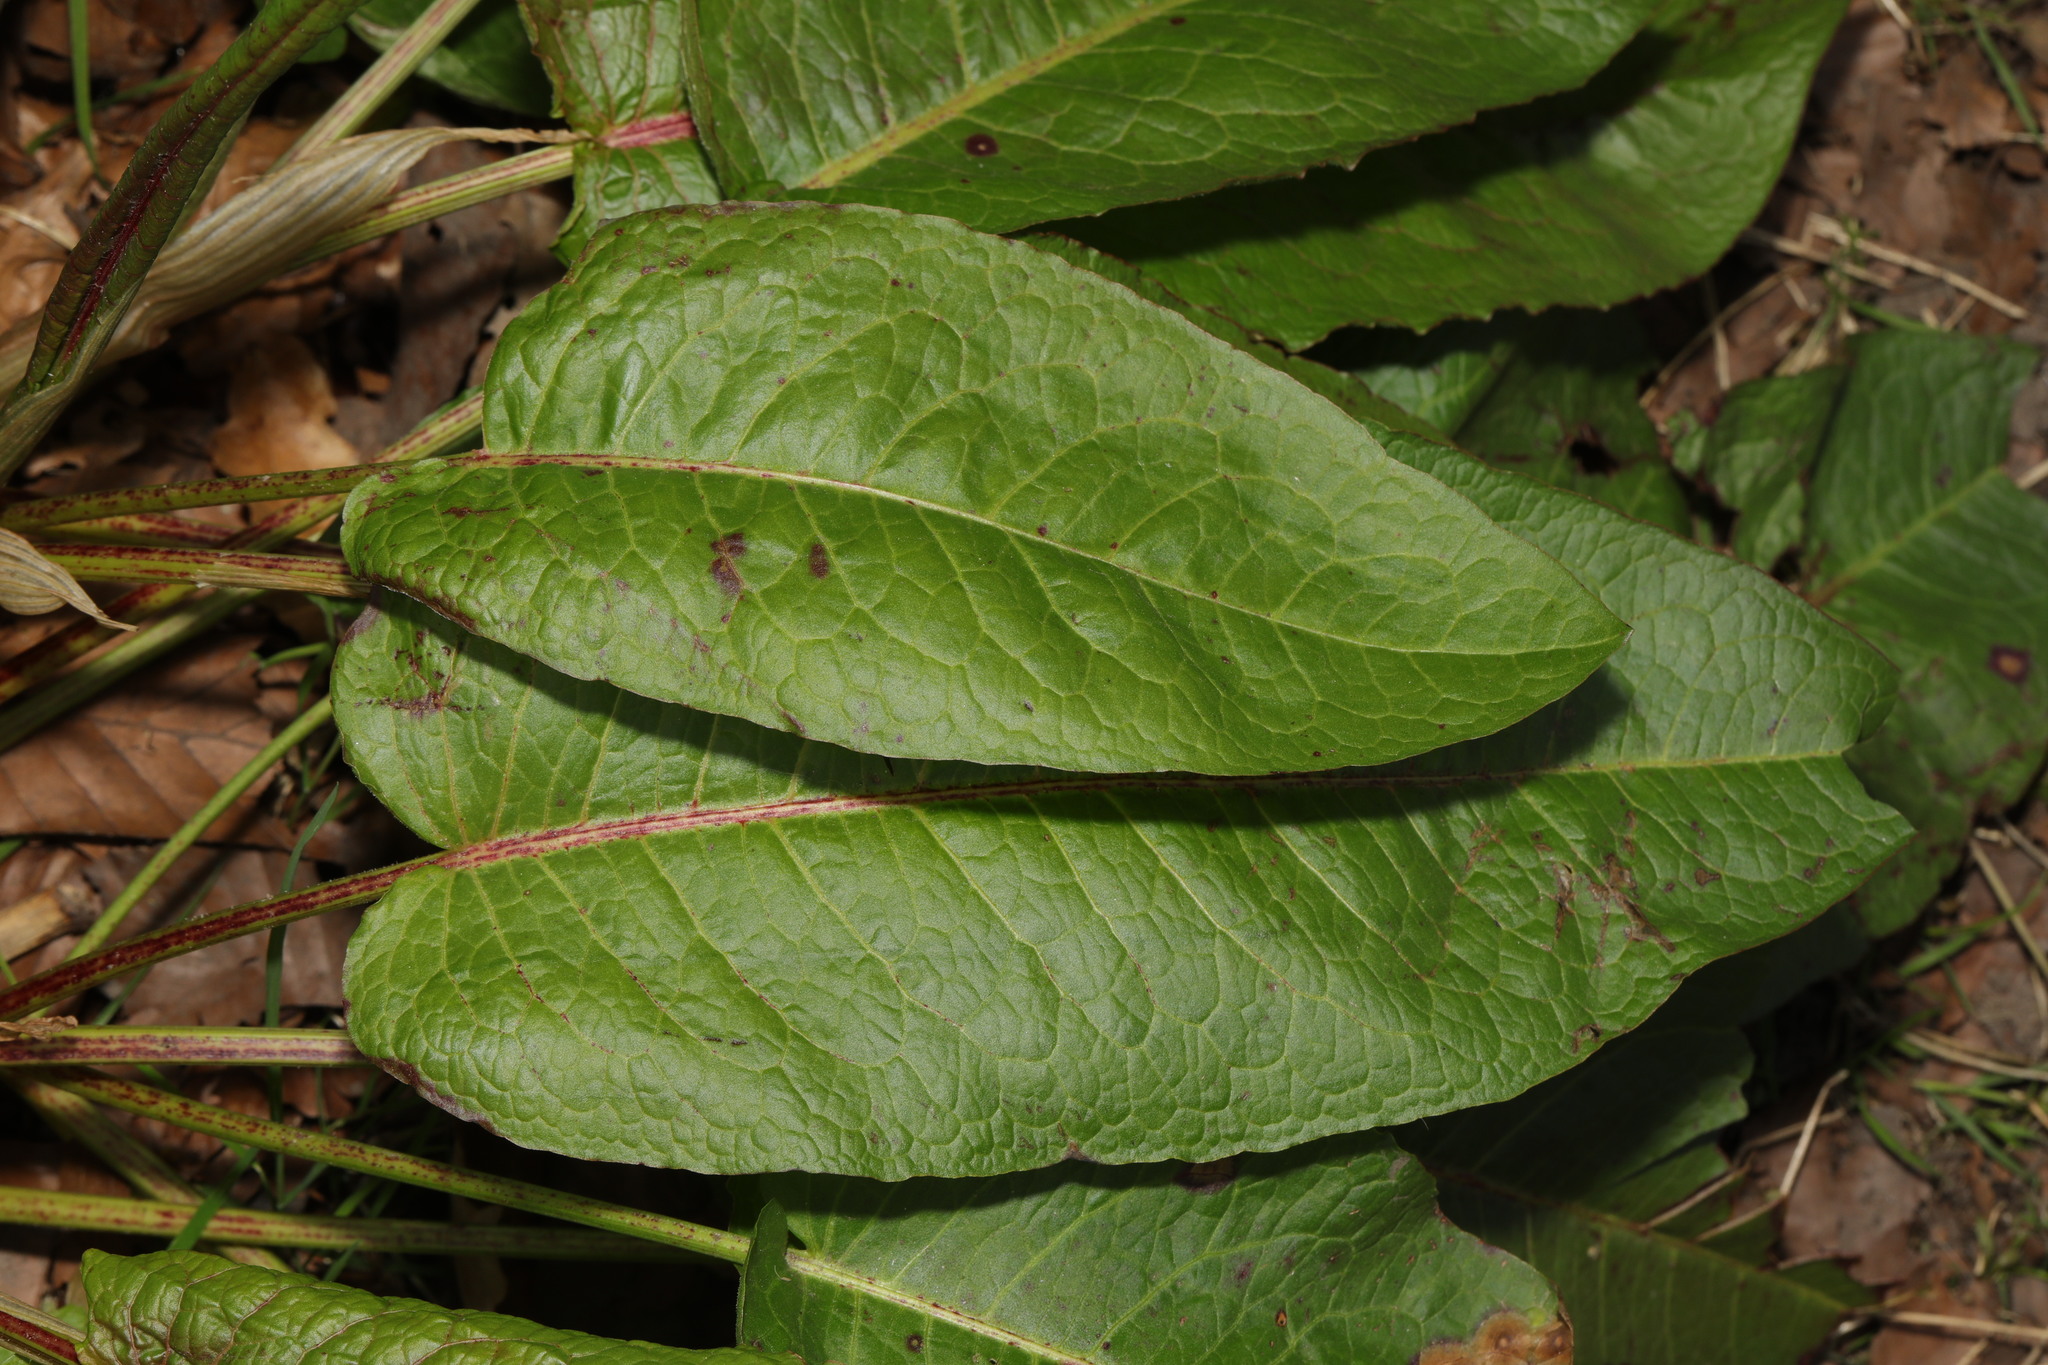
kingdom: Plantae
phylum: Tracheophyta
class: Magnoliopsida
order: Caryophyllales
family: Polygonaceae
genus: Rumex
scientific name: Rumex obtusifolius
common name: Bitter dock
